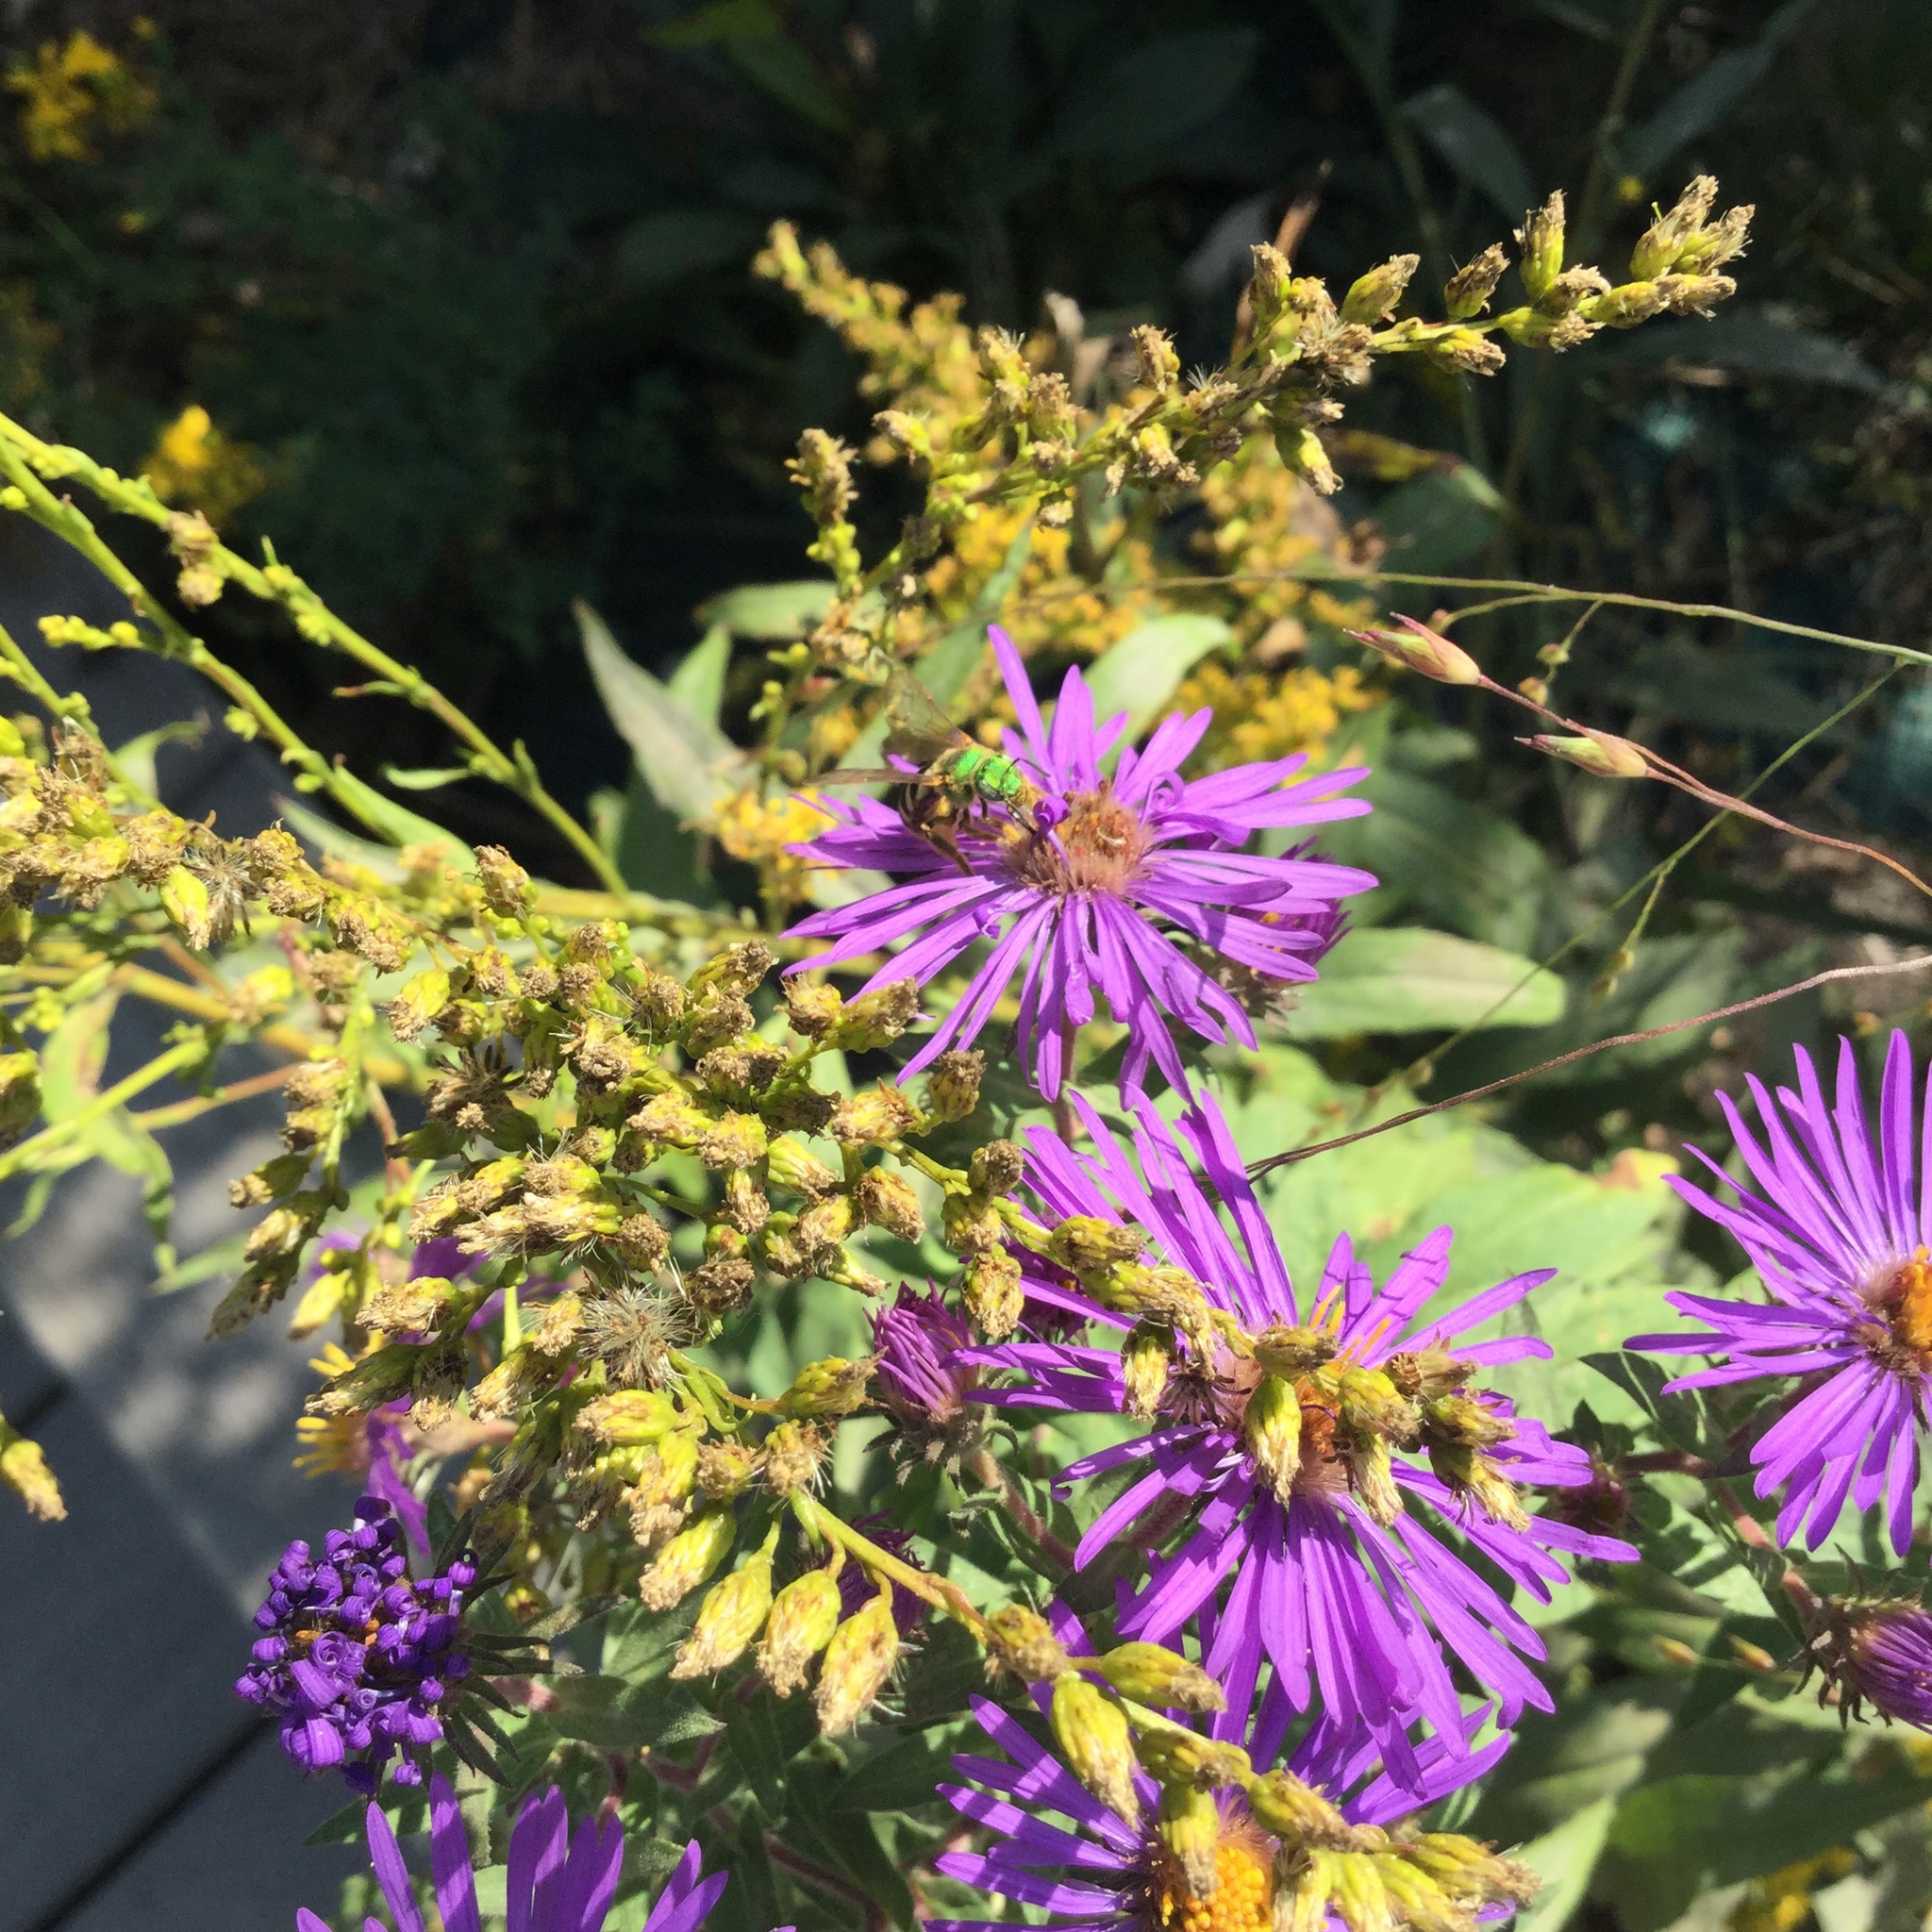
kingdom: Animalia
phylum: Arthropoda
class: Insecta
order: Hymenoptera
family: Halictidae
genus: Agapostemon
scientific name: Agapostemon virescens
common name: Bicolored striped sweat bee
